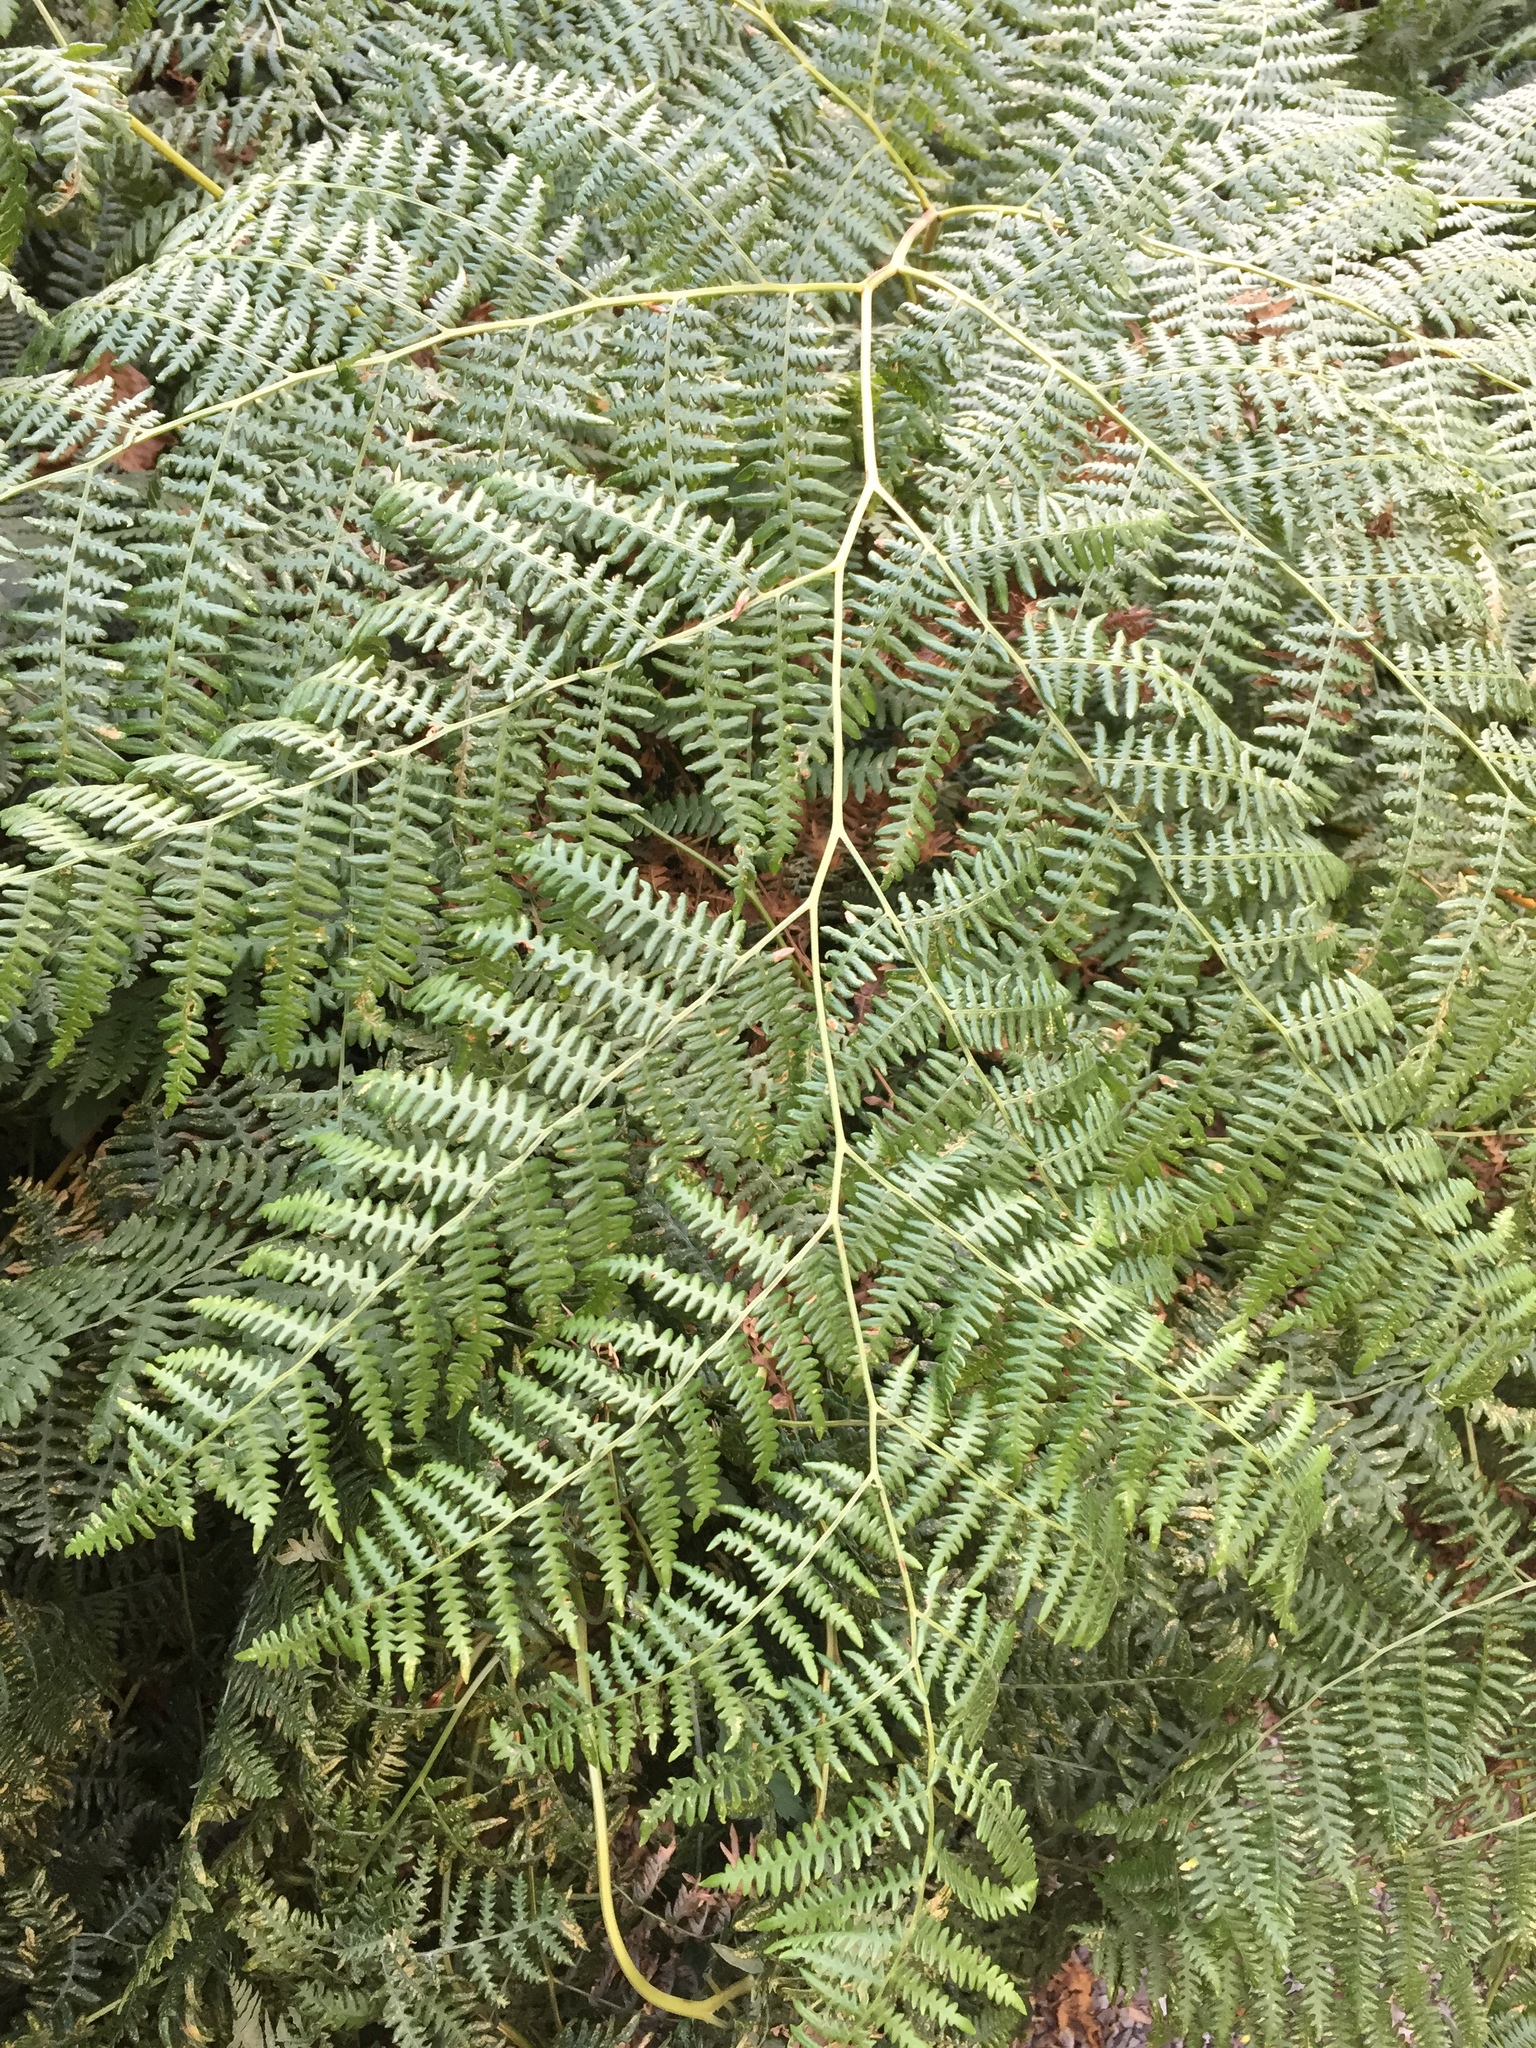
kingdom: Plantae
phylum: Tracheophyta
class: Polypodiopsida
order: Polypodiales
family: Dennstaedtiaceae
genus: Pteridium
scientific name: Pteridium aquilinum
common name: Bracken
